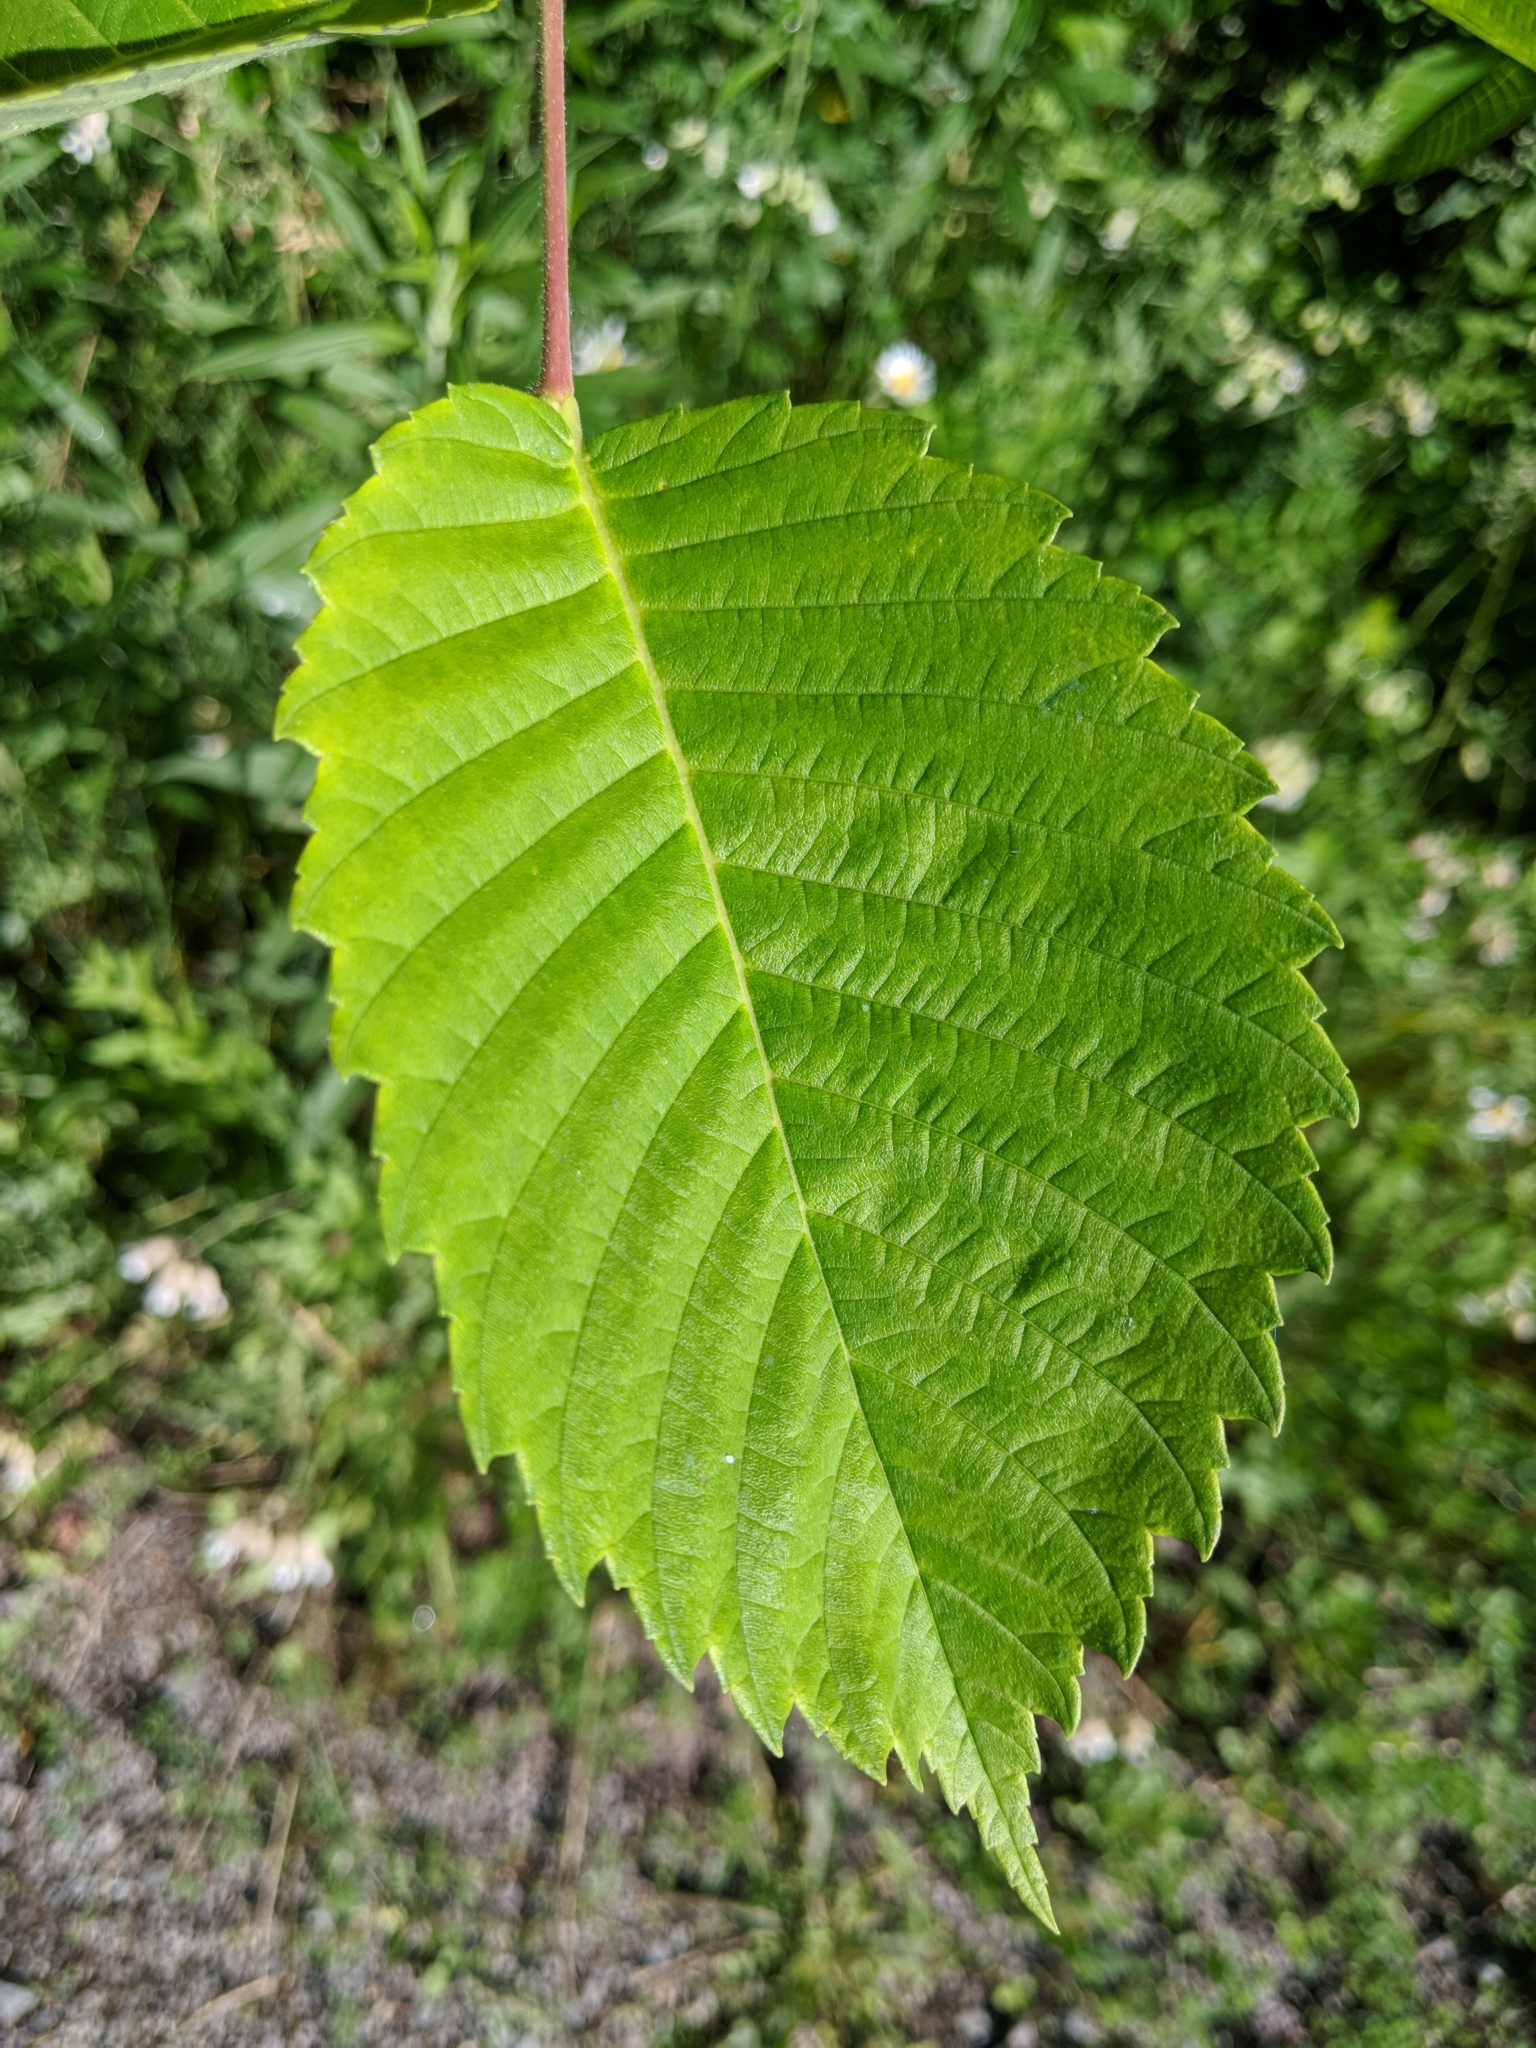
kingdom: Plantae
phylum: Tracheophyta
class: Magnoliopsida
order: Rosales
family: Ulmaceae
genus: Ulmus
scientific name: Ulmus americana
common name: American elm
